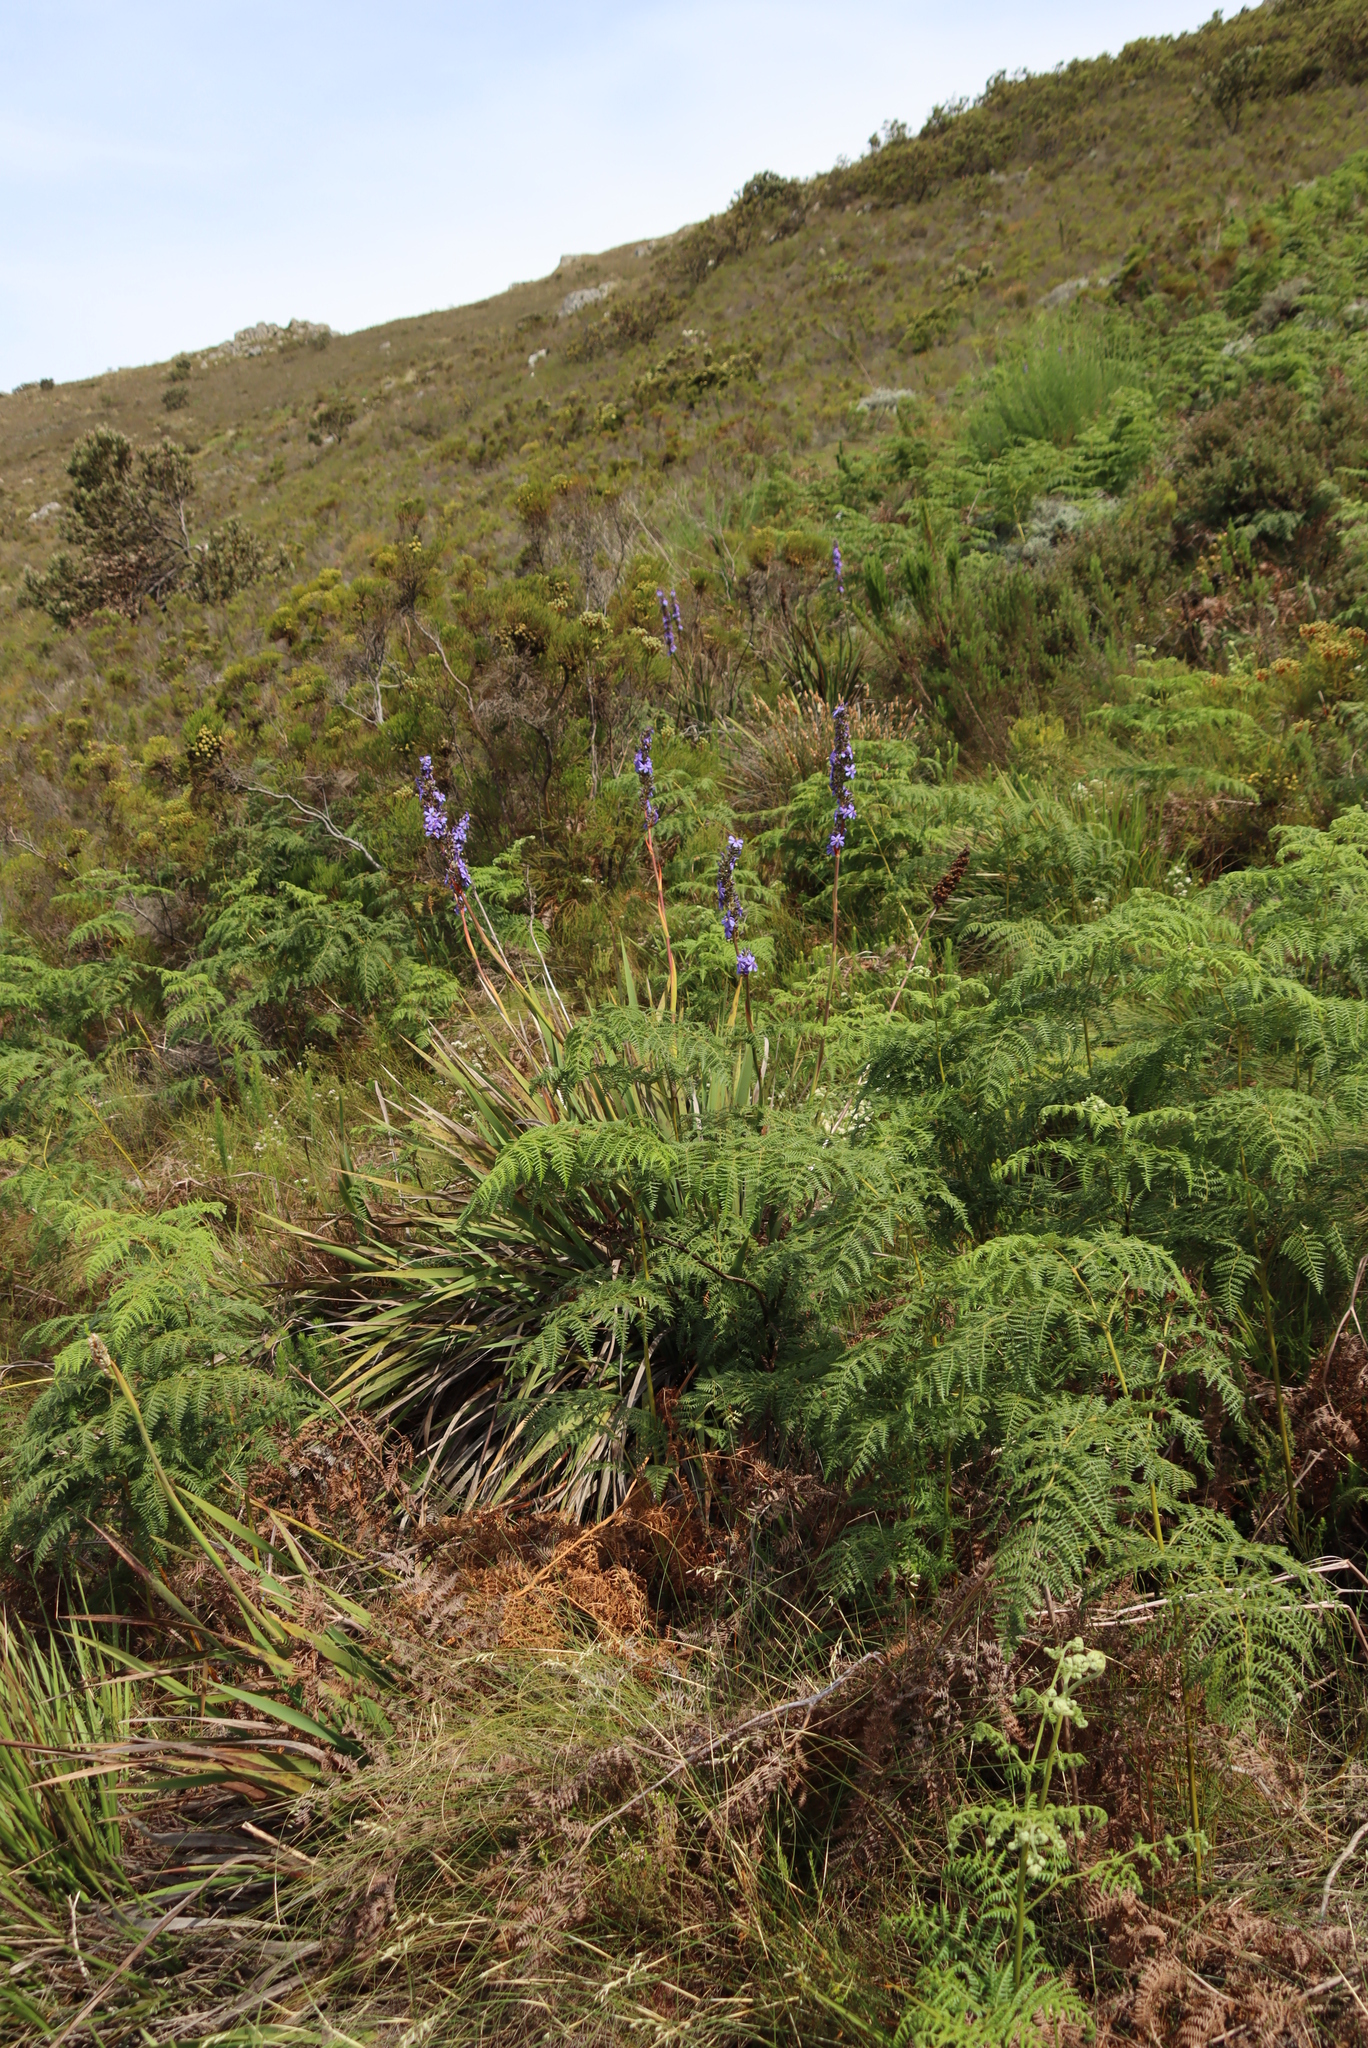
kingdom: Plantae
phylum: Tracheophyta
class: Polypodiopsida
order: Polypodiales
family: Dennstaedtiaceae
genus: Pteridium
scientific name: Pteridium aquilinum
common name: Bracken
